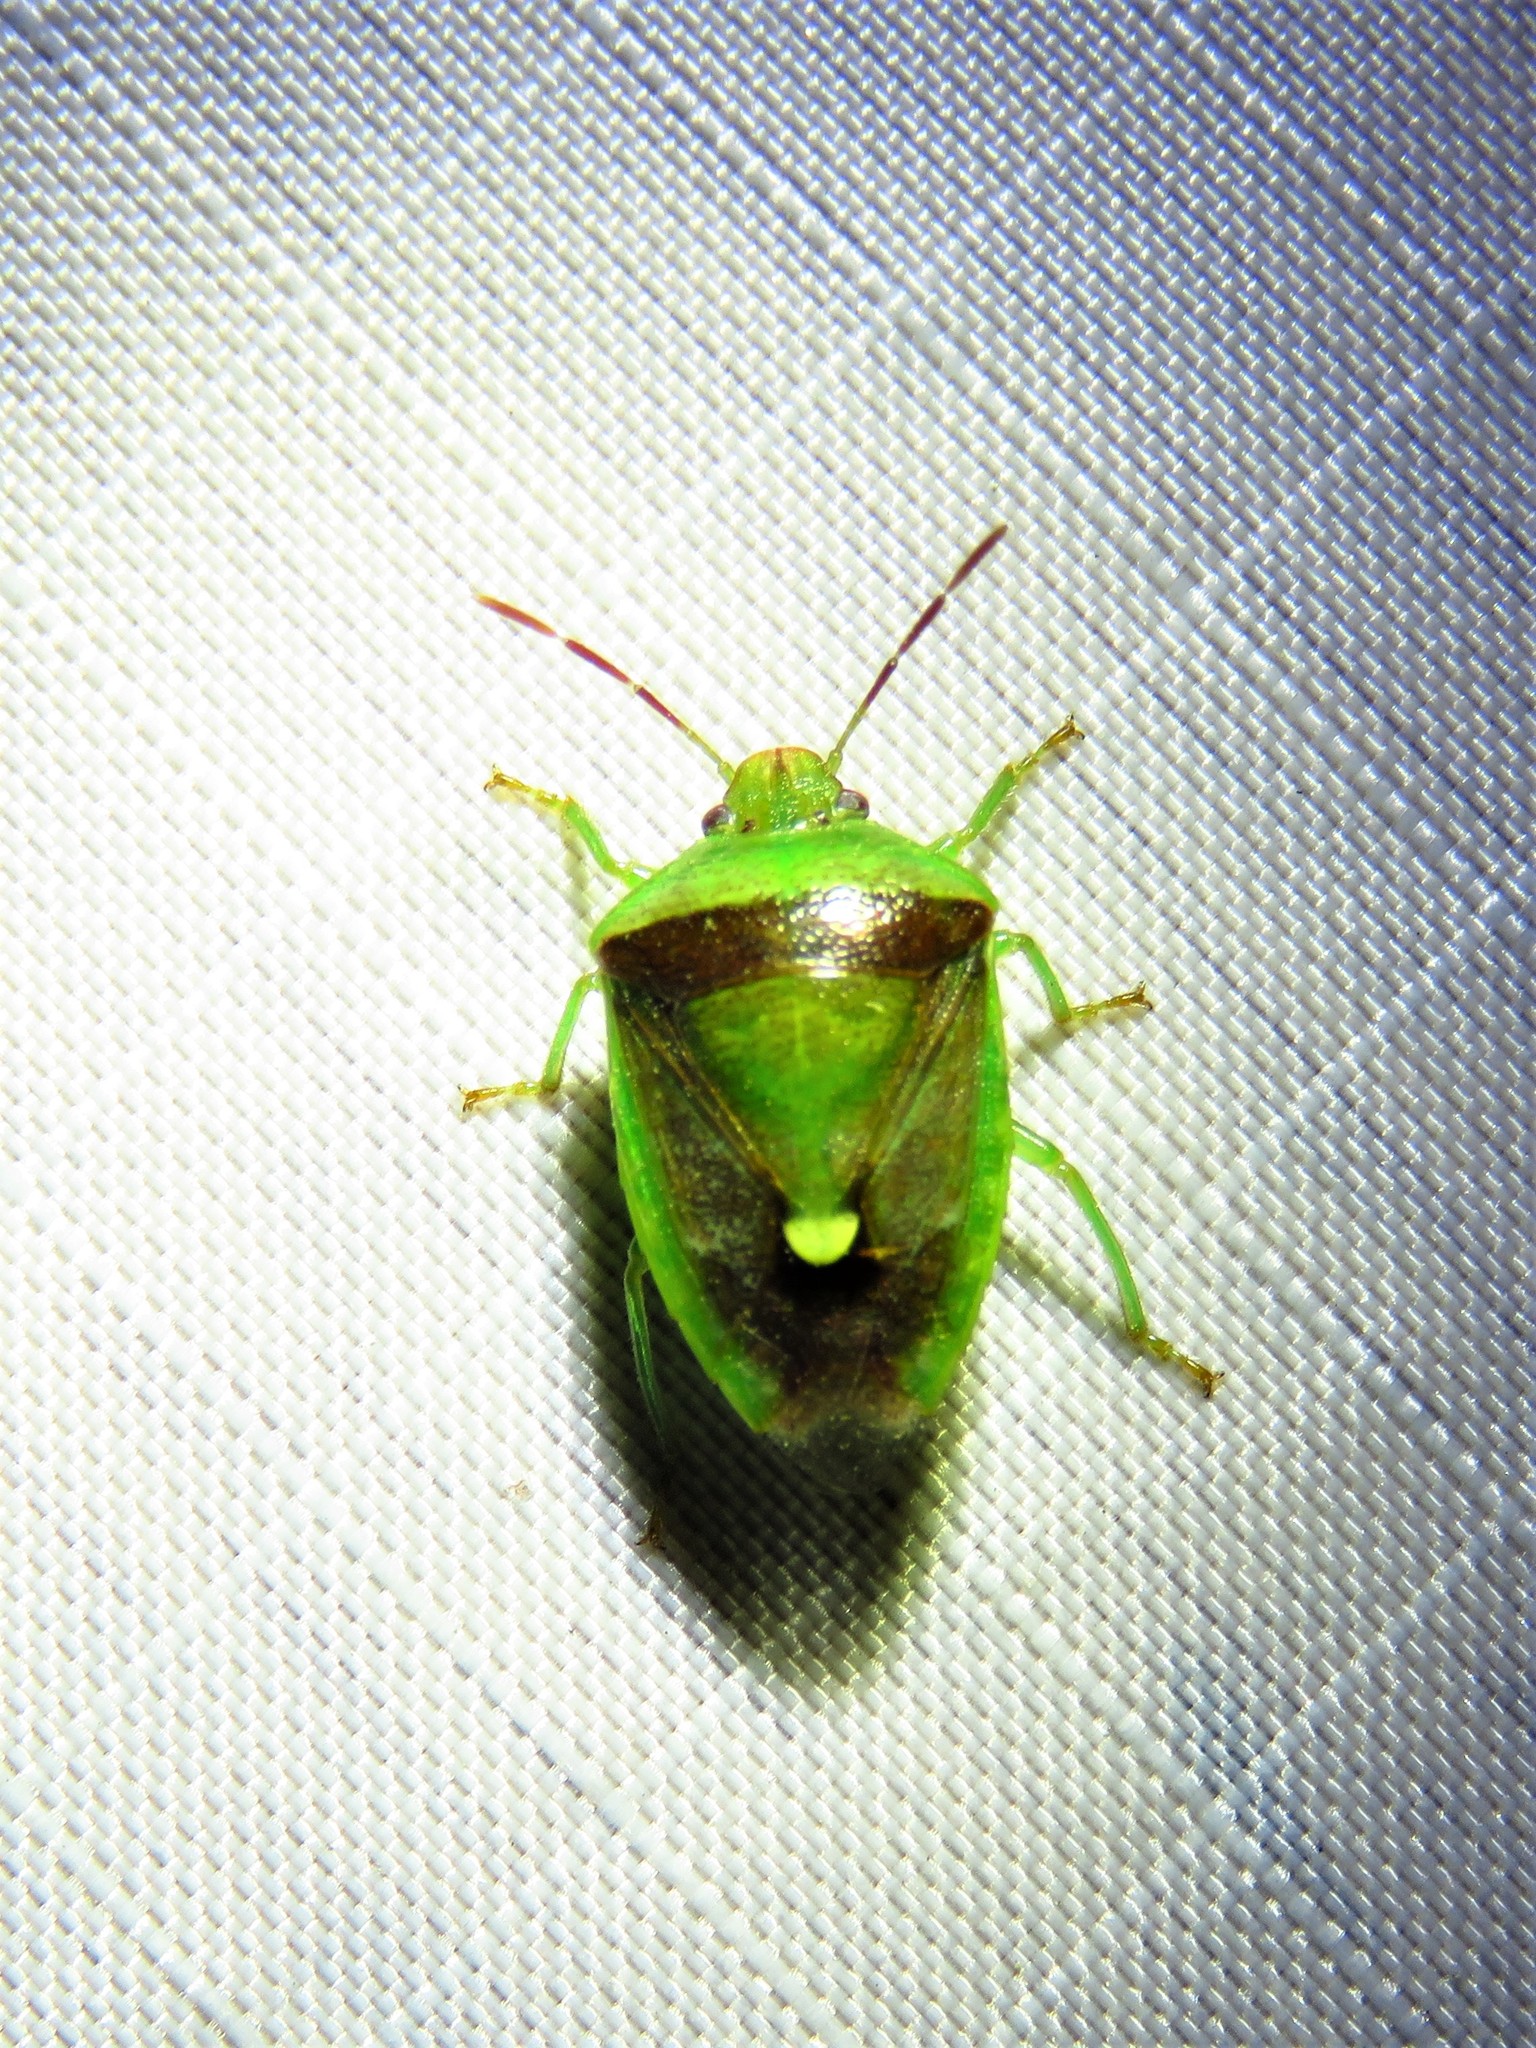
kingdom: Animalia
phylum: Arthropoda
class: Insecta
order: Hemiptera
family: Pentatomidae
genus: Banasa
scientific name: Banasa dimidiata
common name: Green burgundy stink bug
